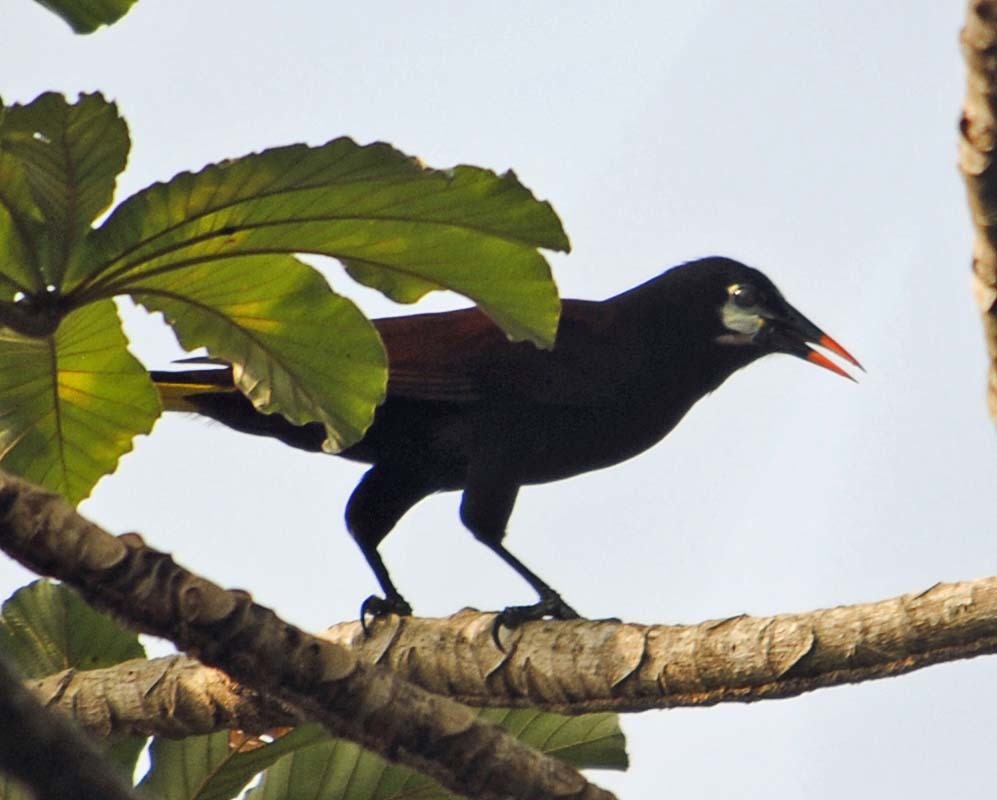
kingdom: Animalia
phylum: Chordata
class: Aves
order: Passeriformes
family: Icteridae
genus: Psarocolius
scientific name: Psarocolius montezuma
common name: Montezuma oropendola
